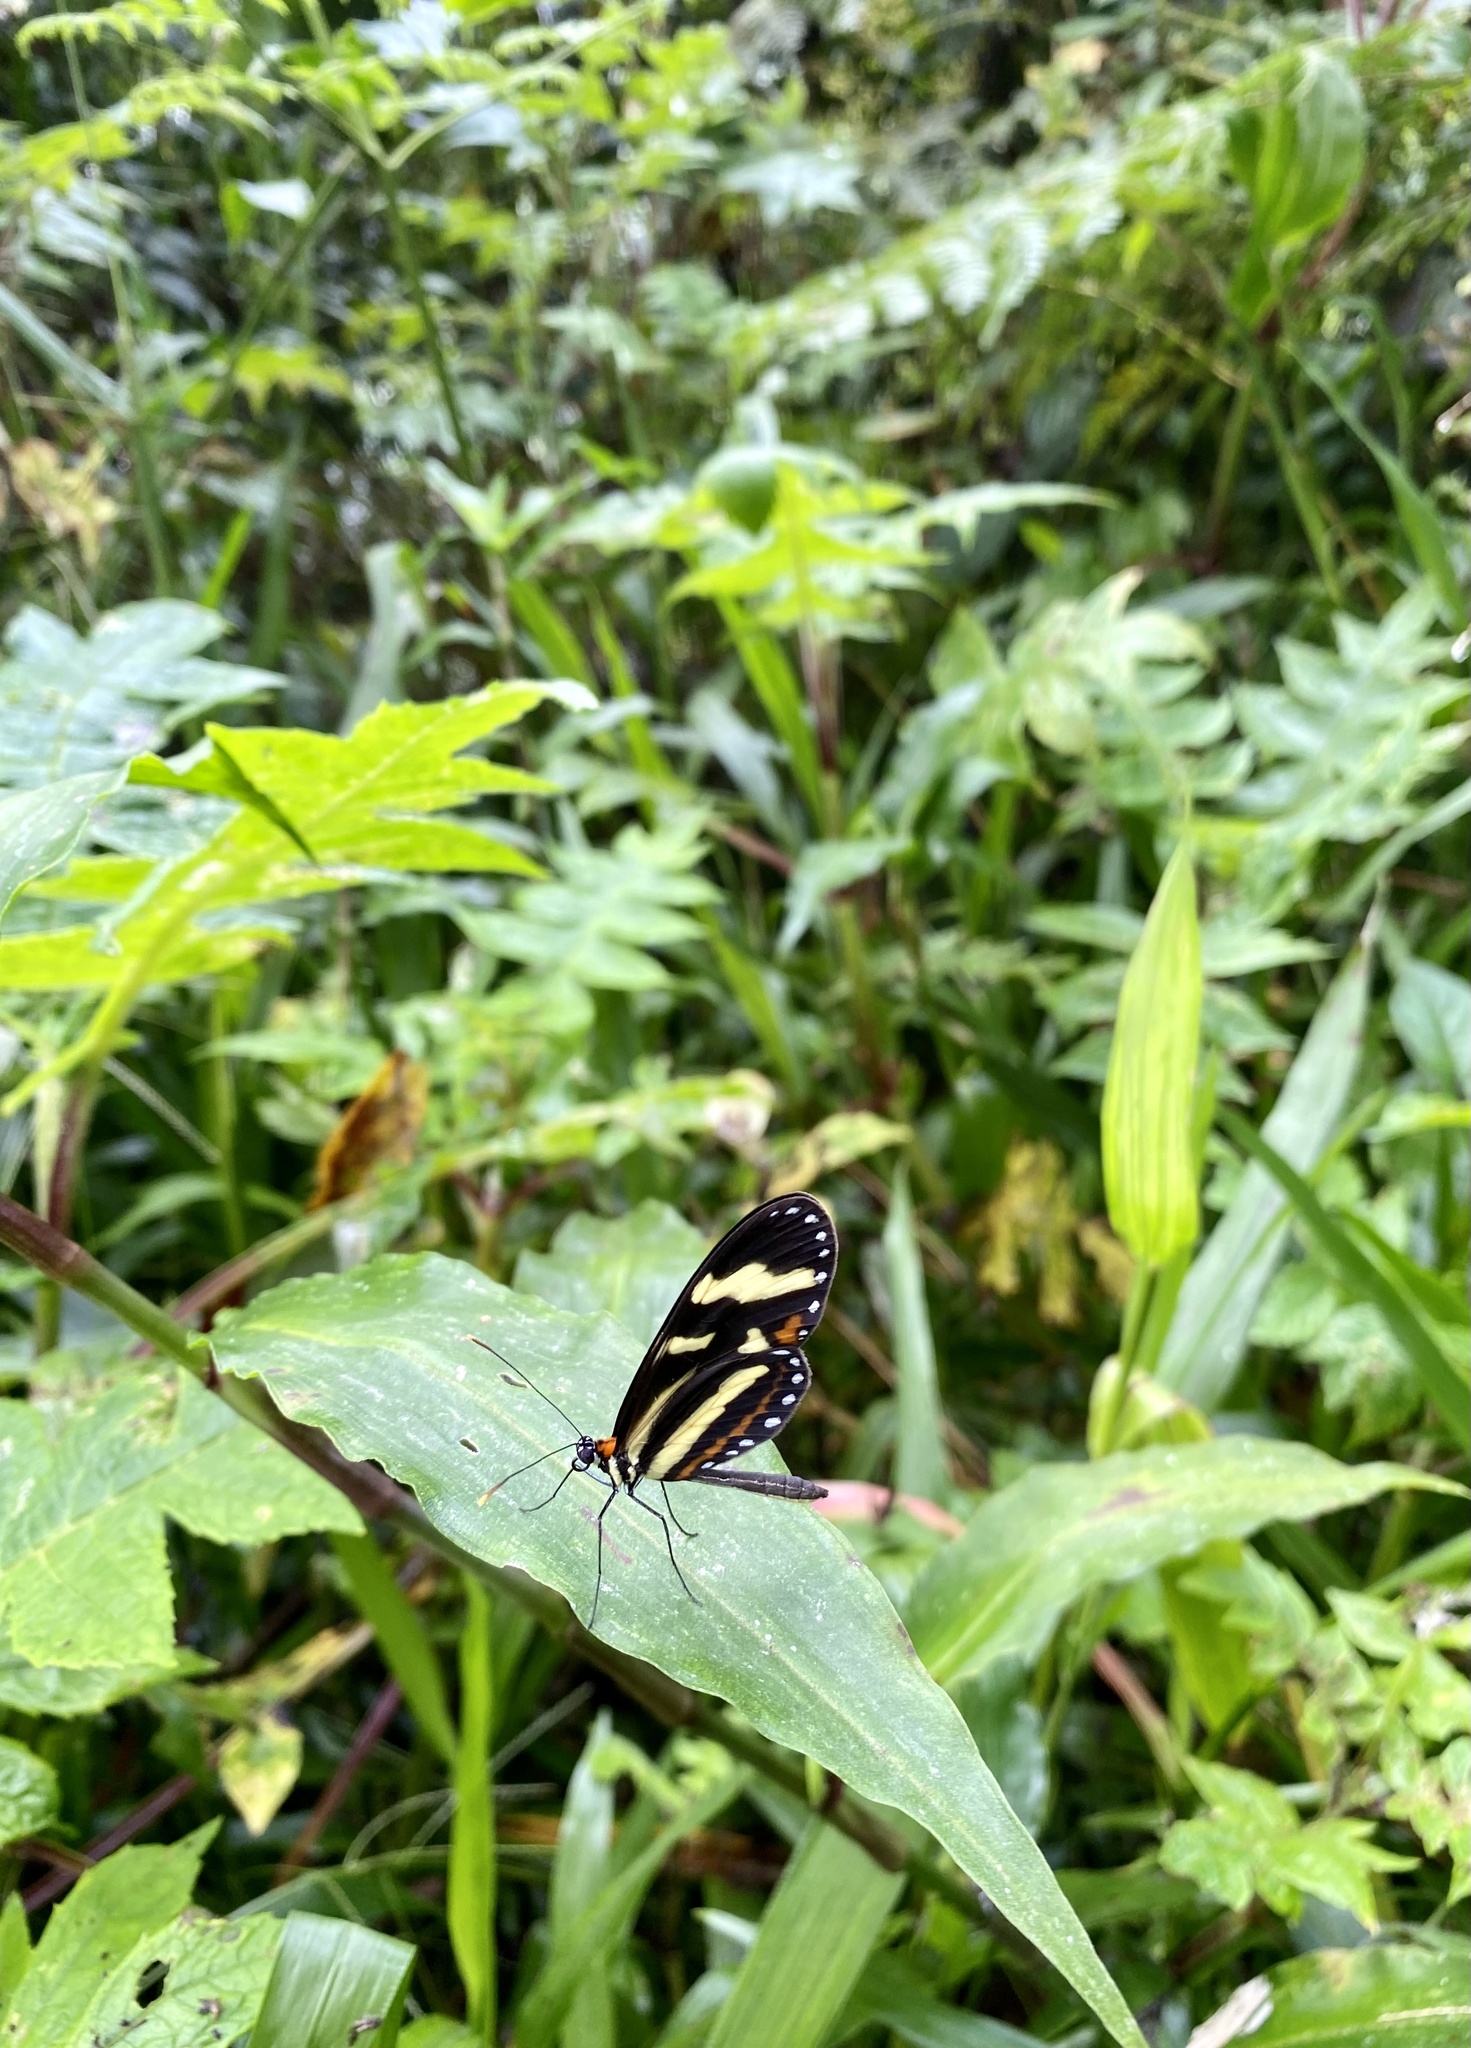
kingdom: Animalia
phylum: Arthropoda
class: Insecta
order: Lepidoptera
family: Nymphalidae
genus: Mechanitis
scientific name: Mechanitis menapis
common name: Menapis tigerwing
